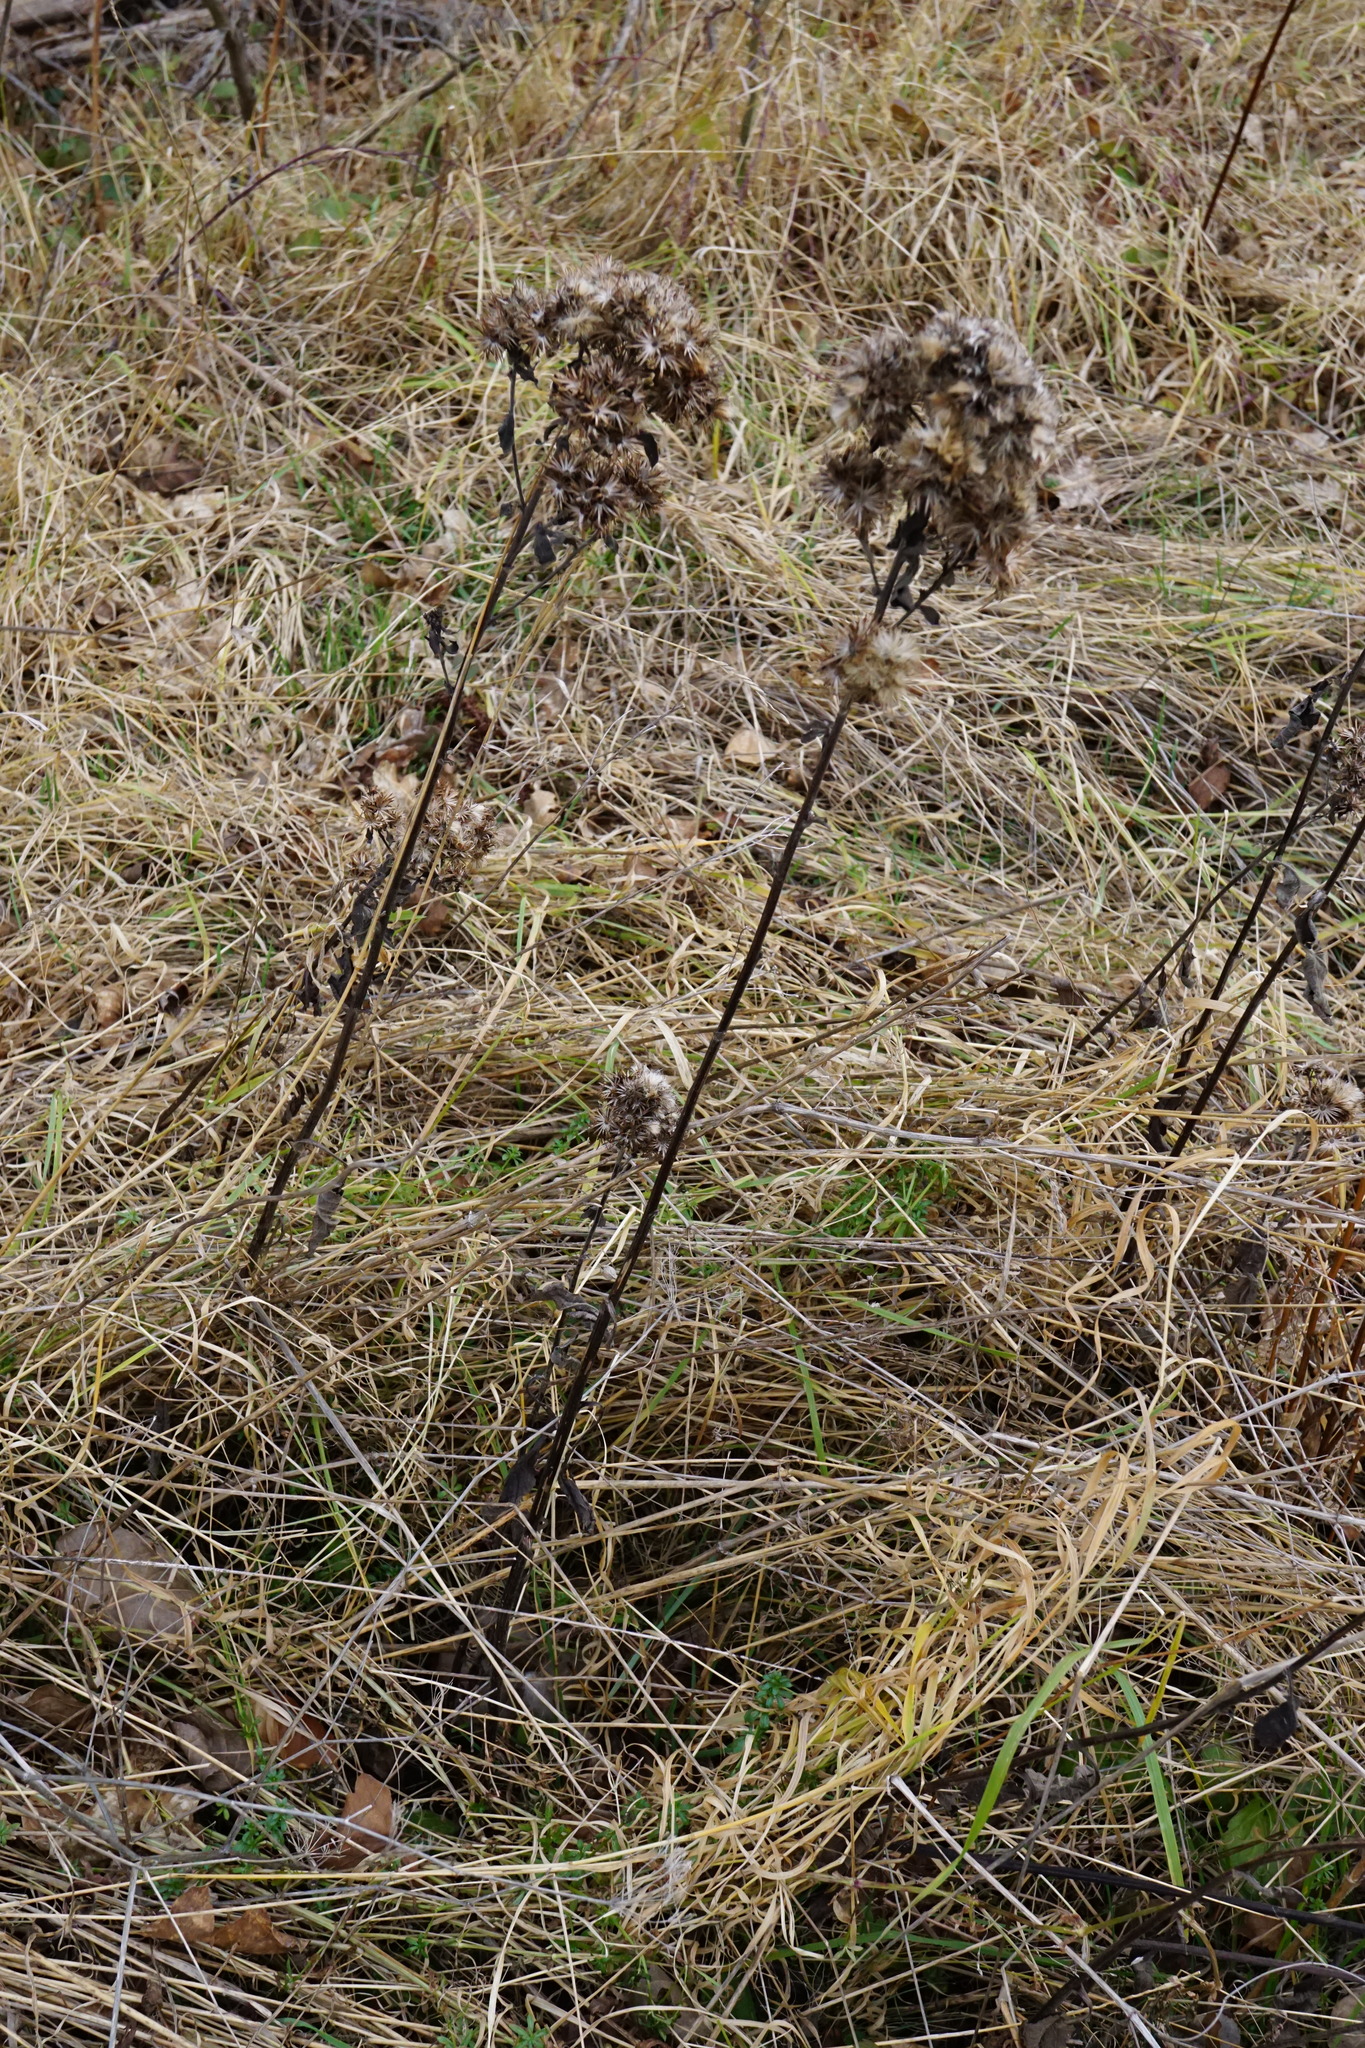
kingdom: Plantae
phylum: Tracheophyta
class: Magnoliopsida
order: Asterales
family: Asteraceae
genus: Pentanema
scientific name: Pentanema squarrosum
